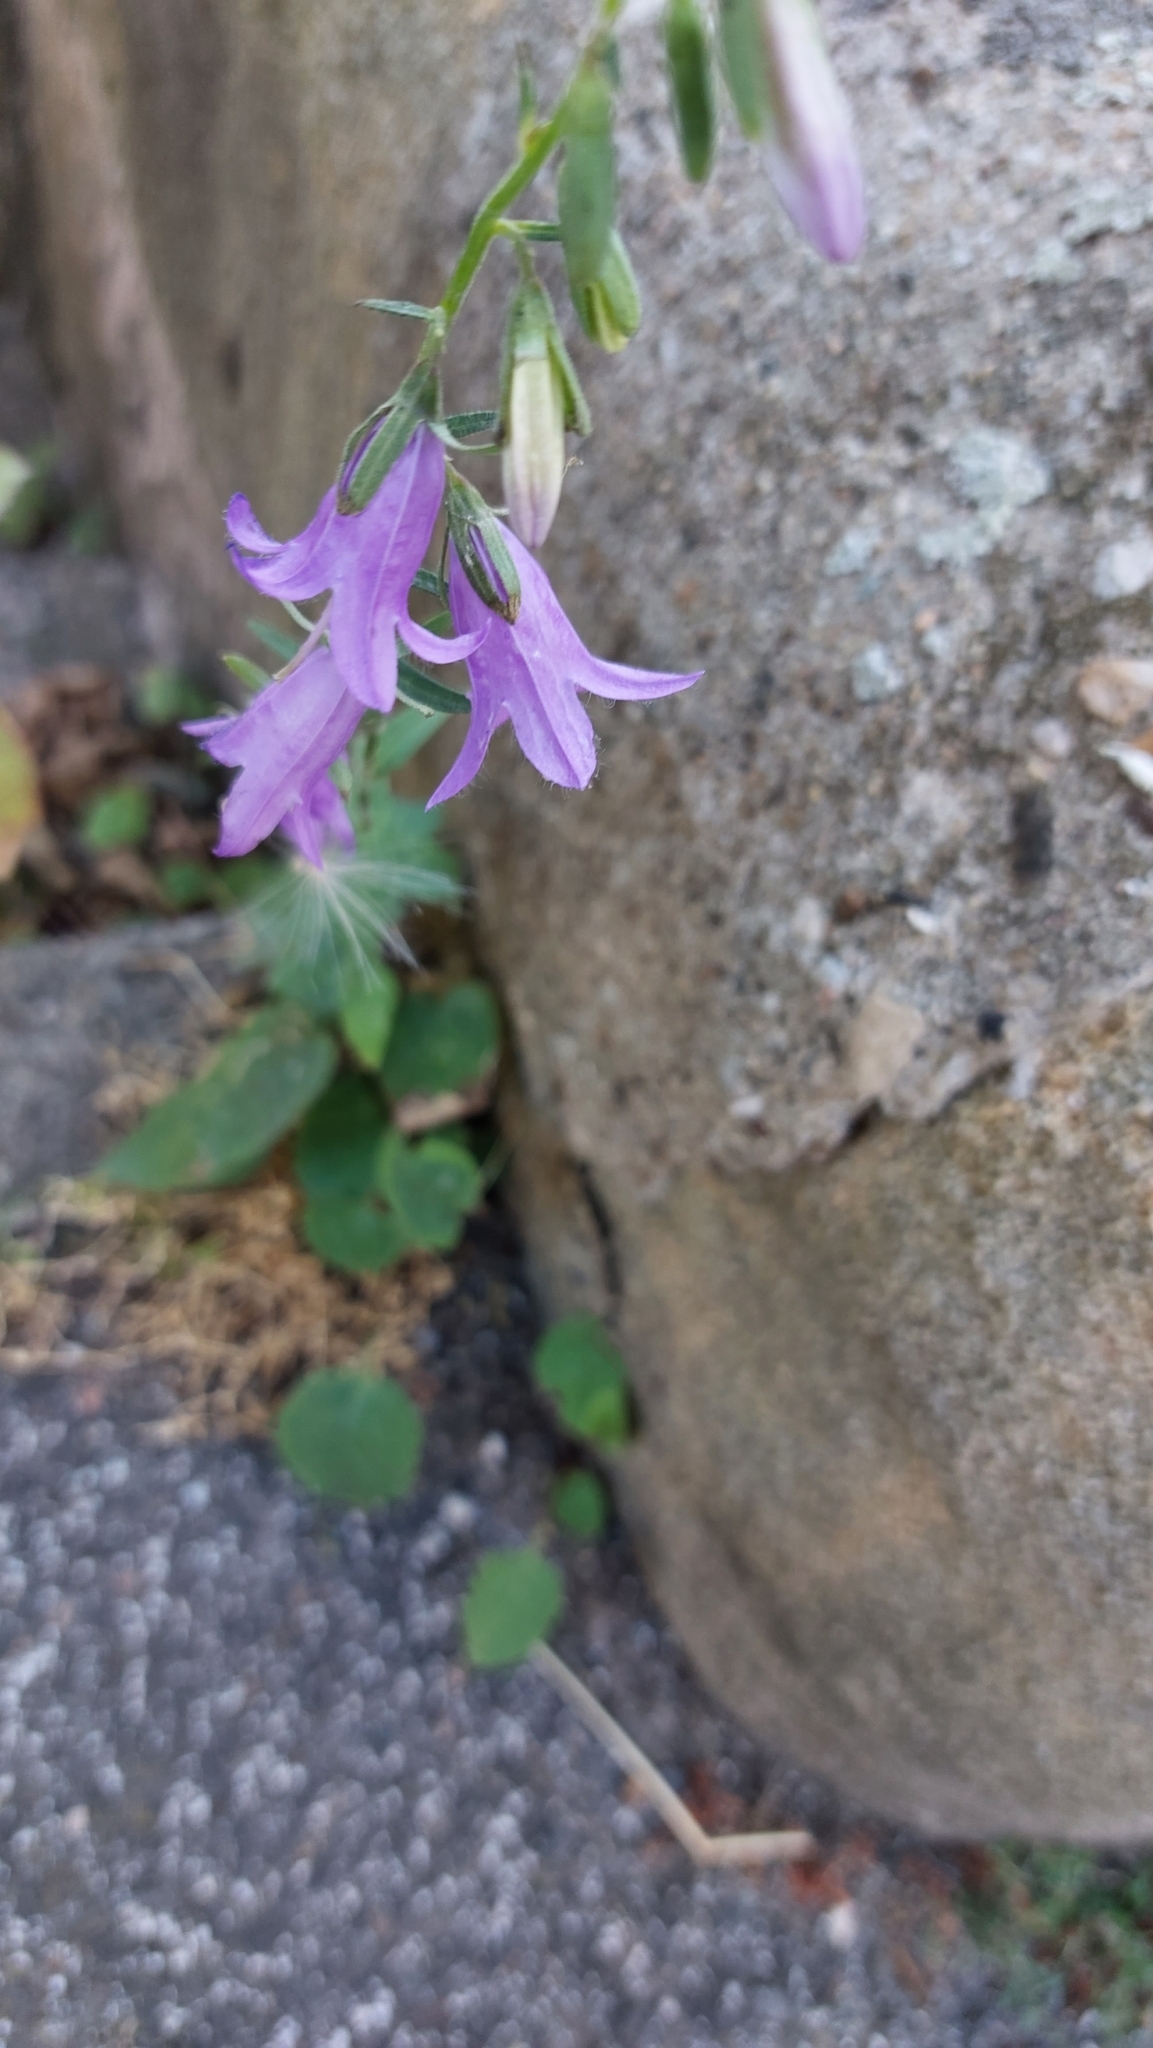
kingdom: Plantae
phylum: Tracheophyta
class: Magnoliopsida
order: Asterales
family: Campanulaceae
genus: Campanula
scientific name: Campanula rapunculoides
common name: Creeping bellflower
